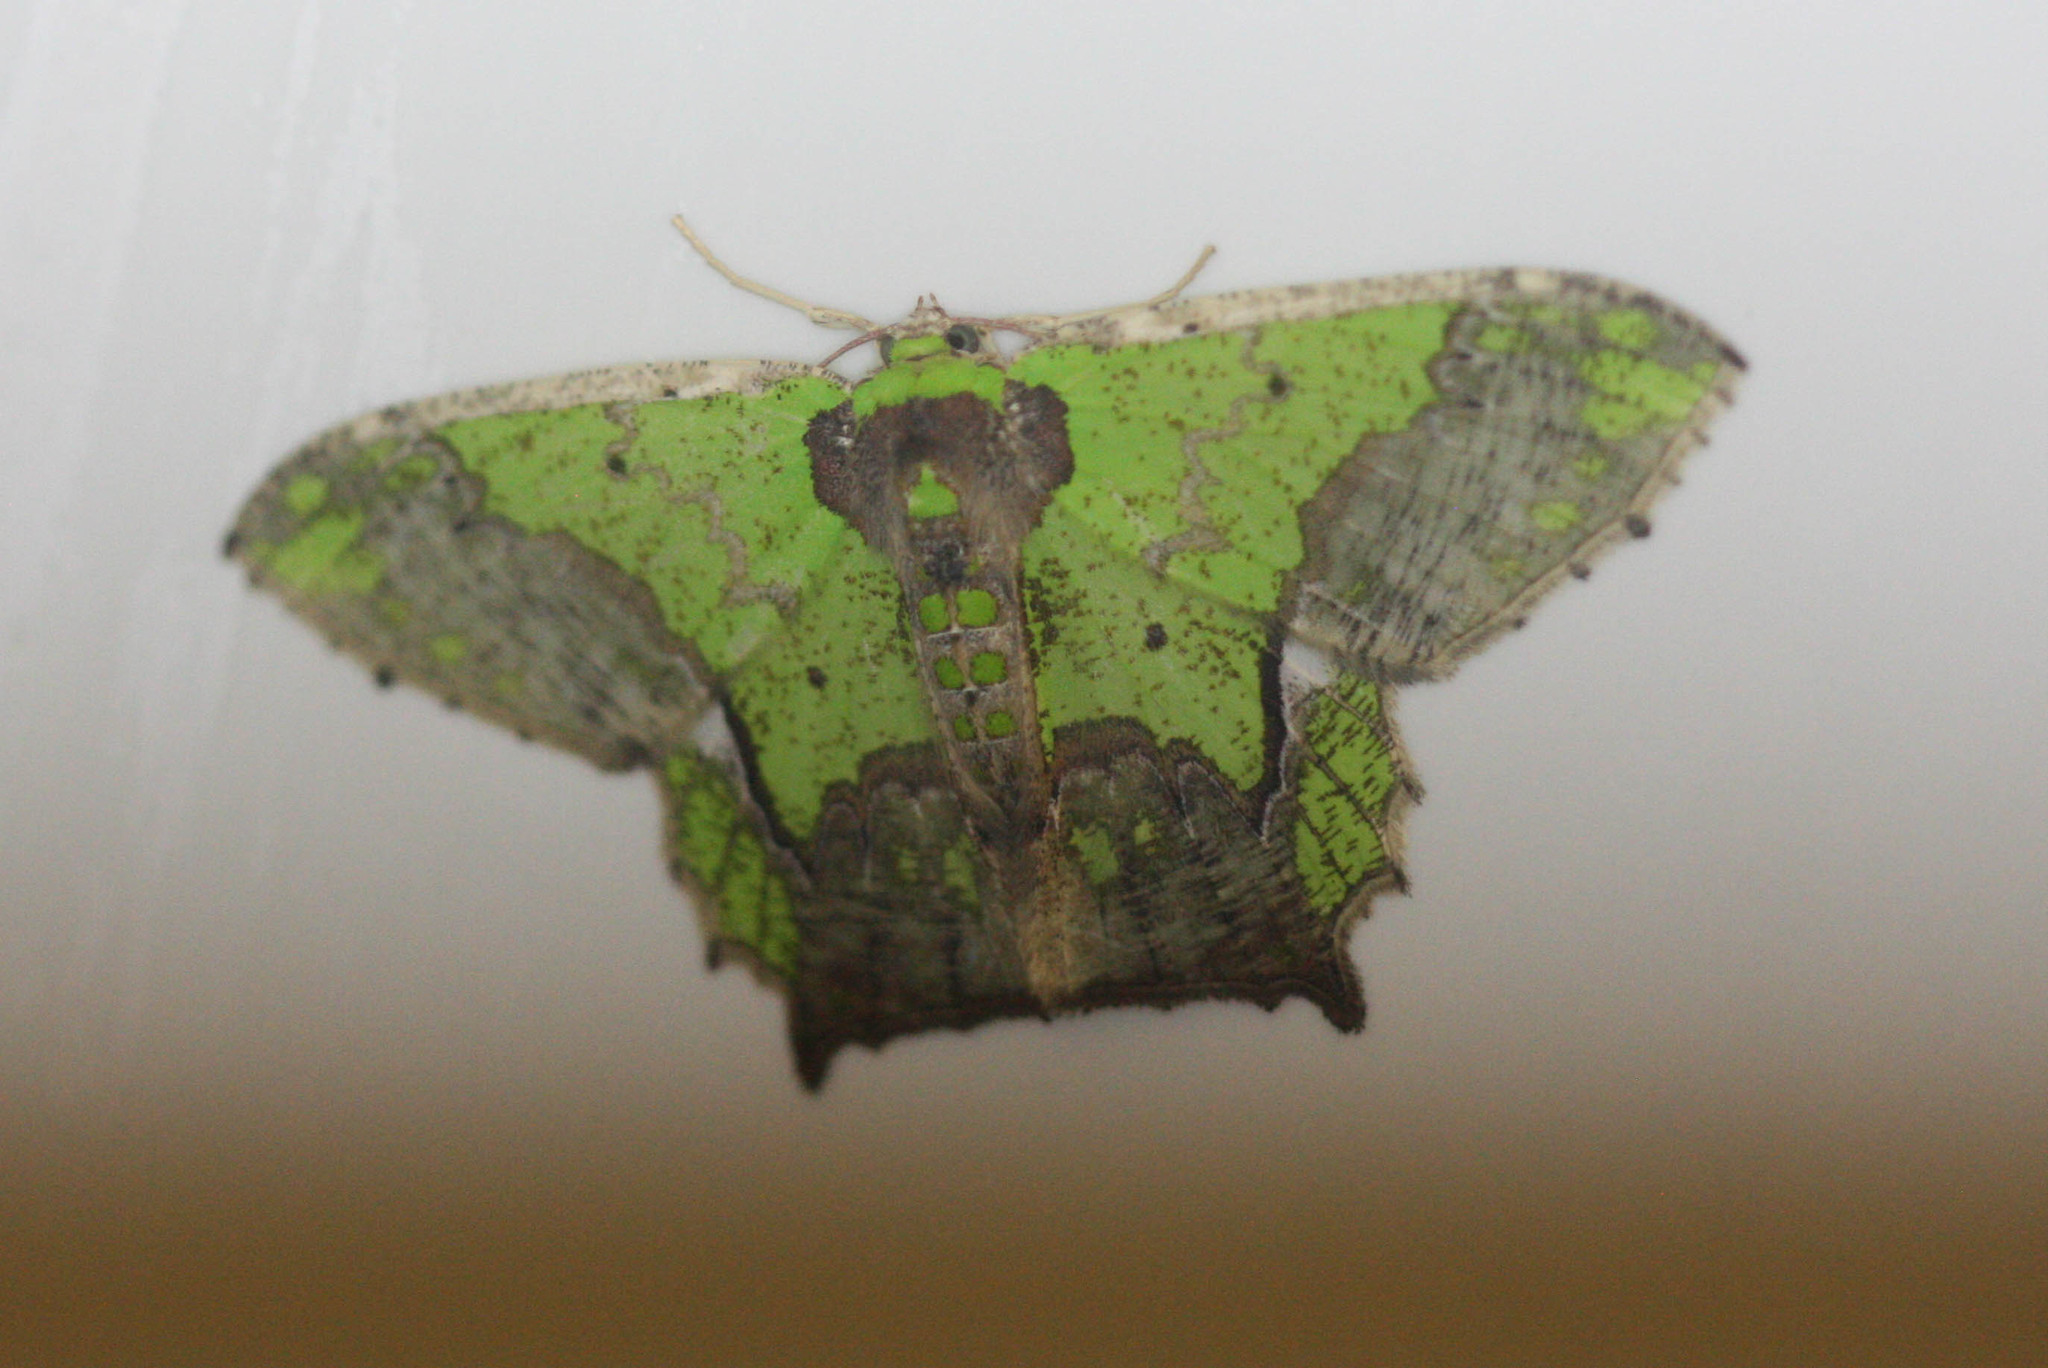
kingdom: Animalia
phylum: Arthropoda
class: Insecta
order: Lepidoptera
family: Geometridae
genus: Agathia
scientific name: Agathia codina
